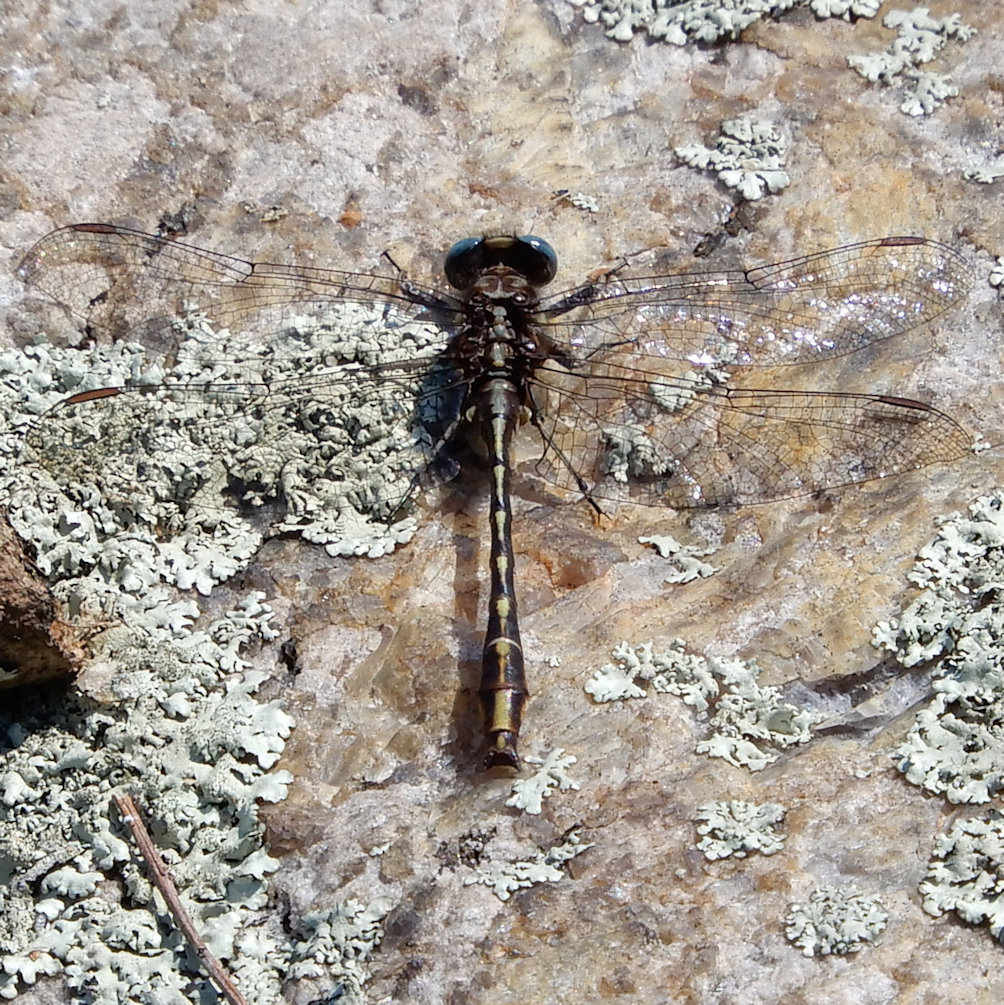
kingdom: Animalia
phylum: Arthropoda
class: Insecta
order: Odonata
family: Gomphidae
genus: Phanogomphus
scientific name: Phanogomphus exilis
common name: Lancet clubtail
